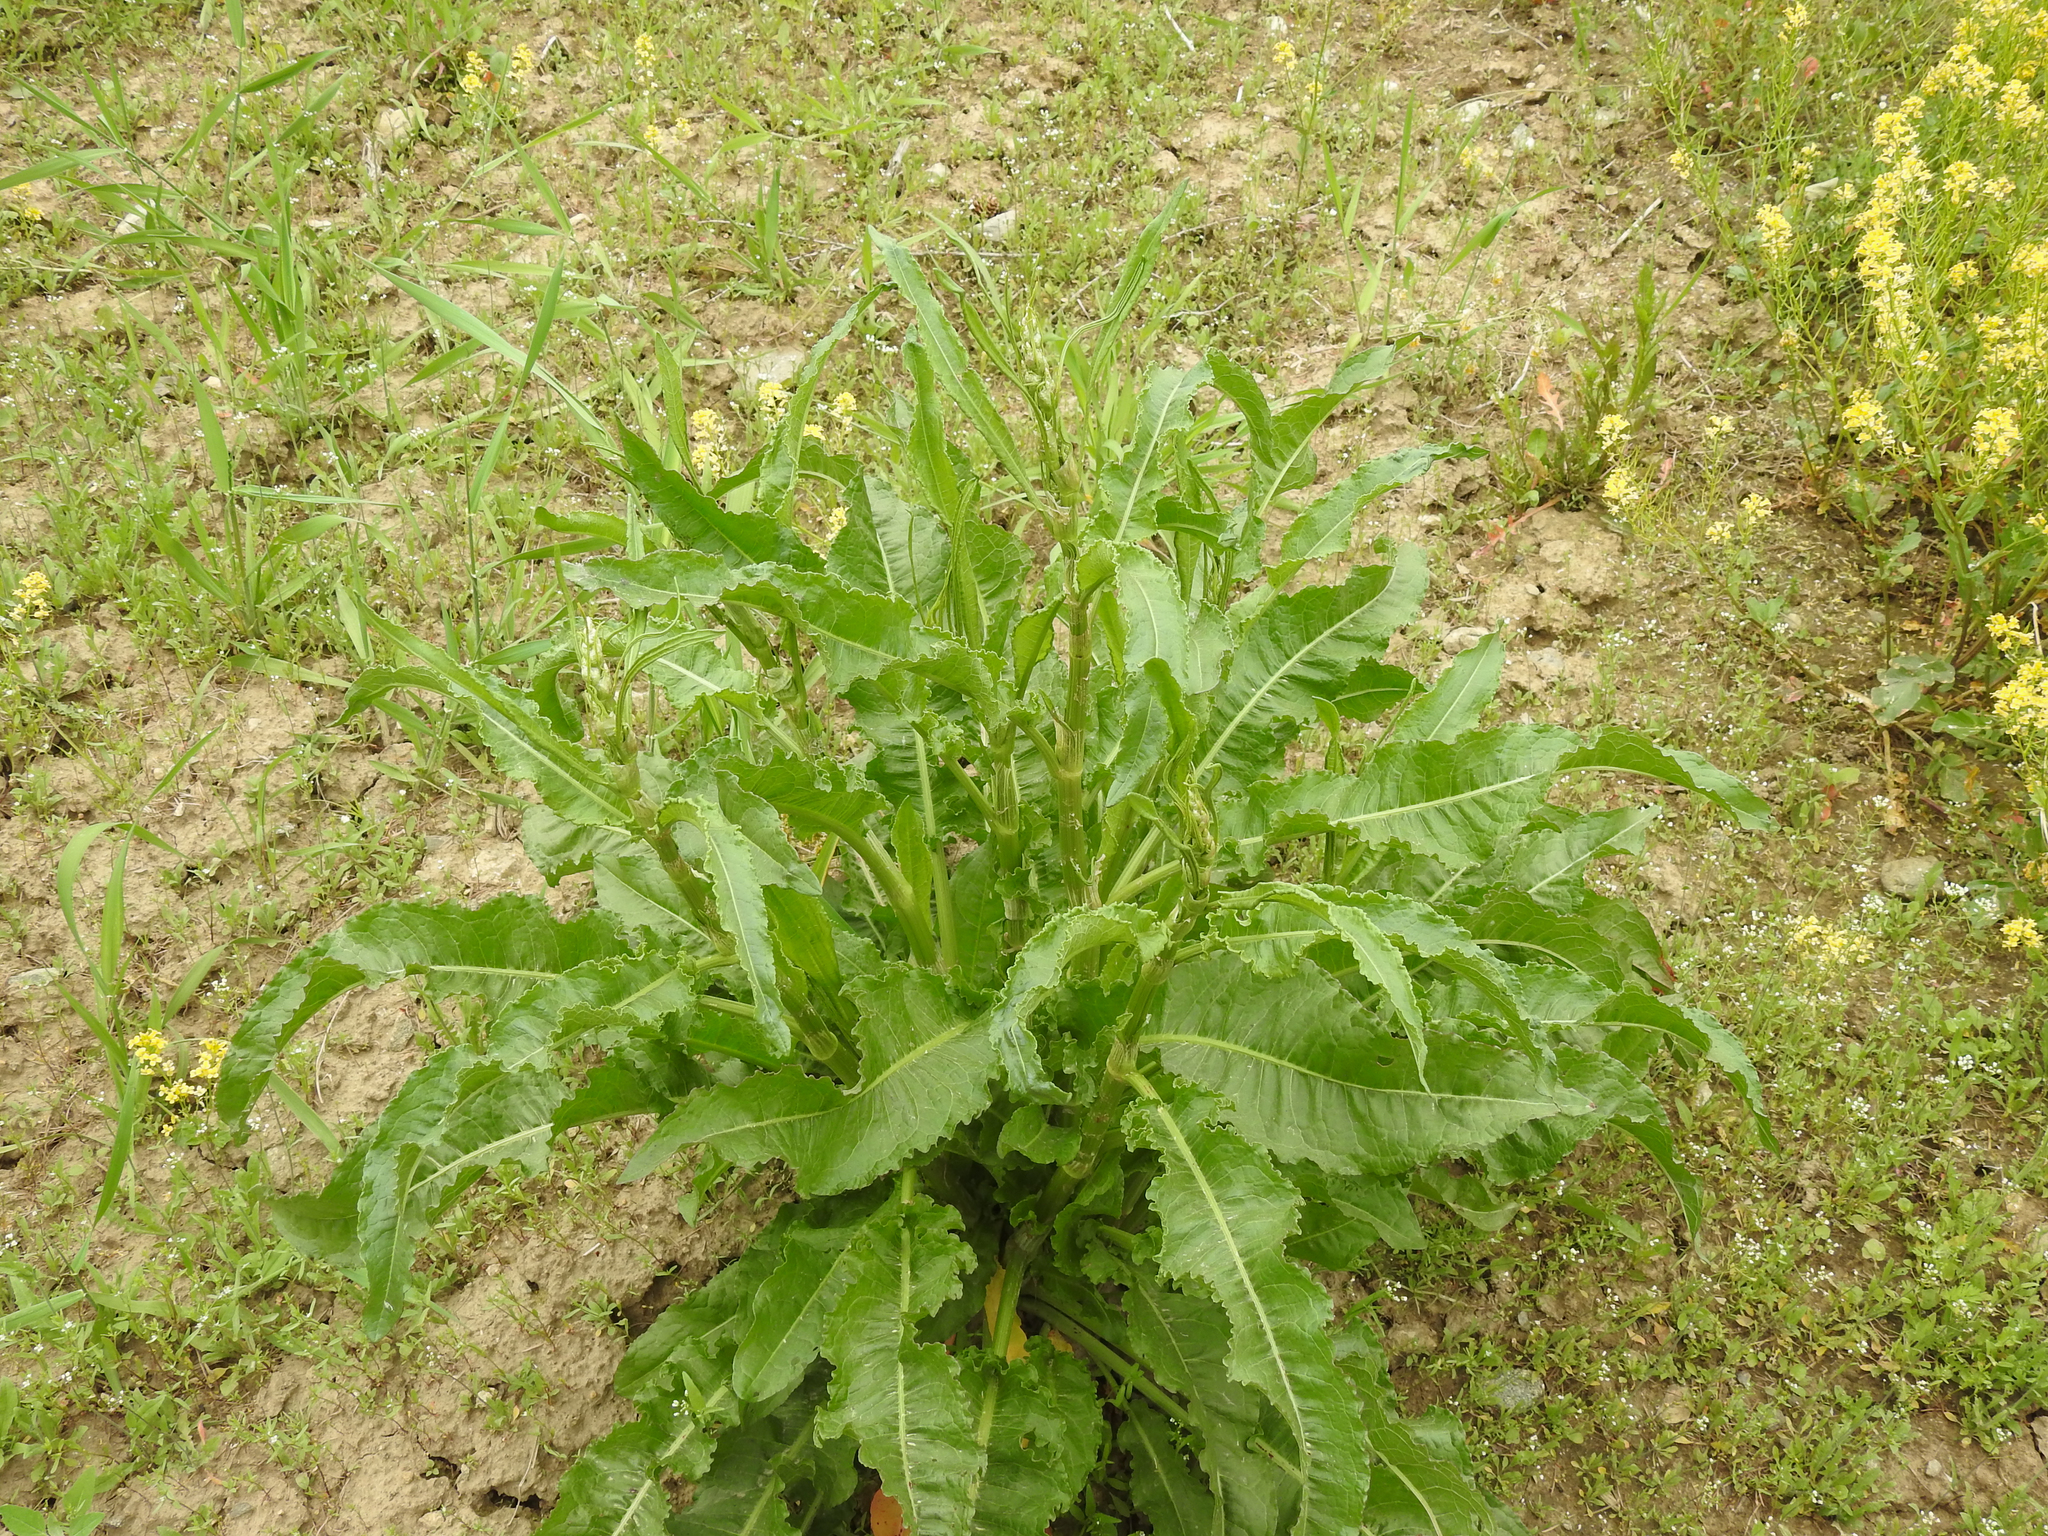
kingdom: Plantae
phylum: Tracheophyta
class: Magnoliopsida
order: Caryophyllales
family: Polygonaceae
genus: Rumex
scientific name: Rumex crispus
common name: Curled dock
